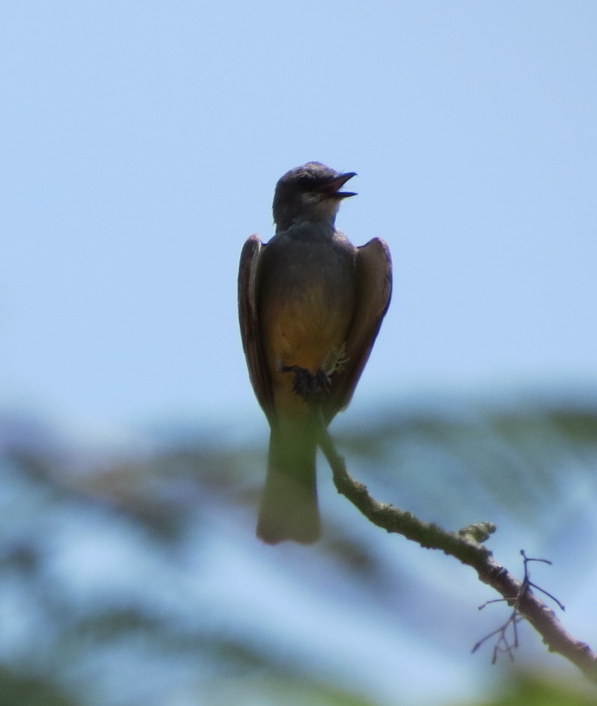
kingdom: Animalia
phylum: Chordata
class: Aves
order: Passeriformes
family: Tyrannidae
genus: Tyrannus
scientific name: Tyrannus vociferans
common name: Cassin's kingbird
